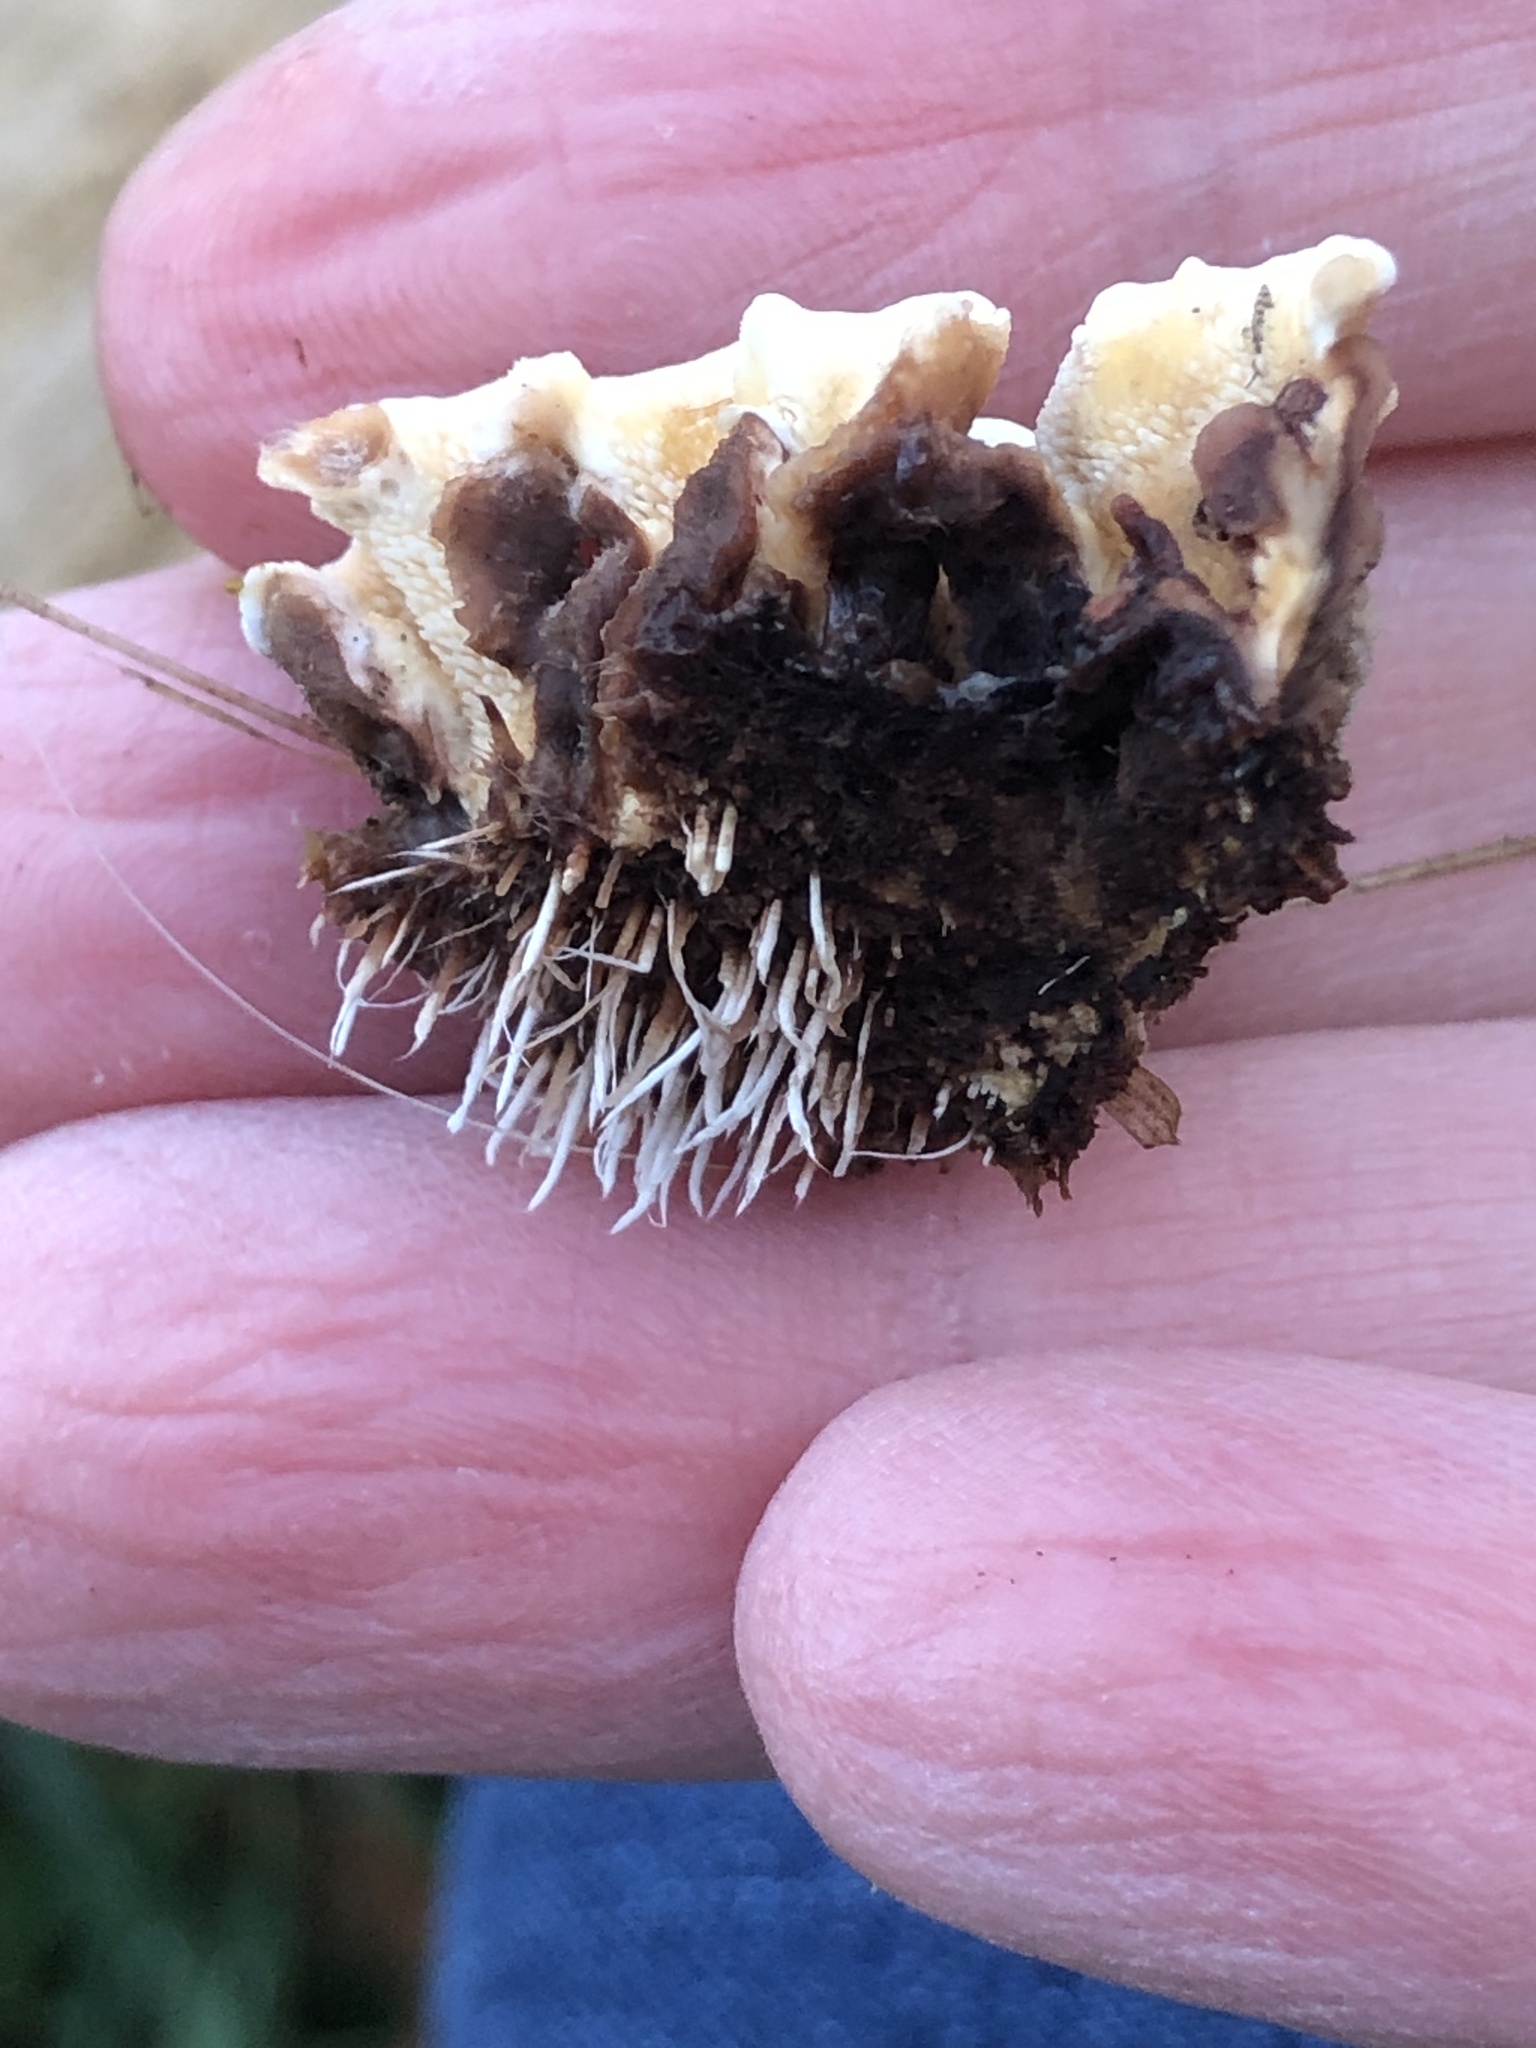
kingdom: Fungi
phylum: Basidiomycota
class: Agaricomycetes
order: Polyporales
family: Steccherinaceae
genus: Steccherinum
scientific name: Steccherinum bourdotii
